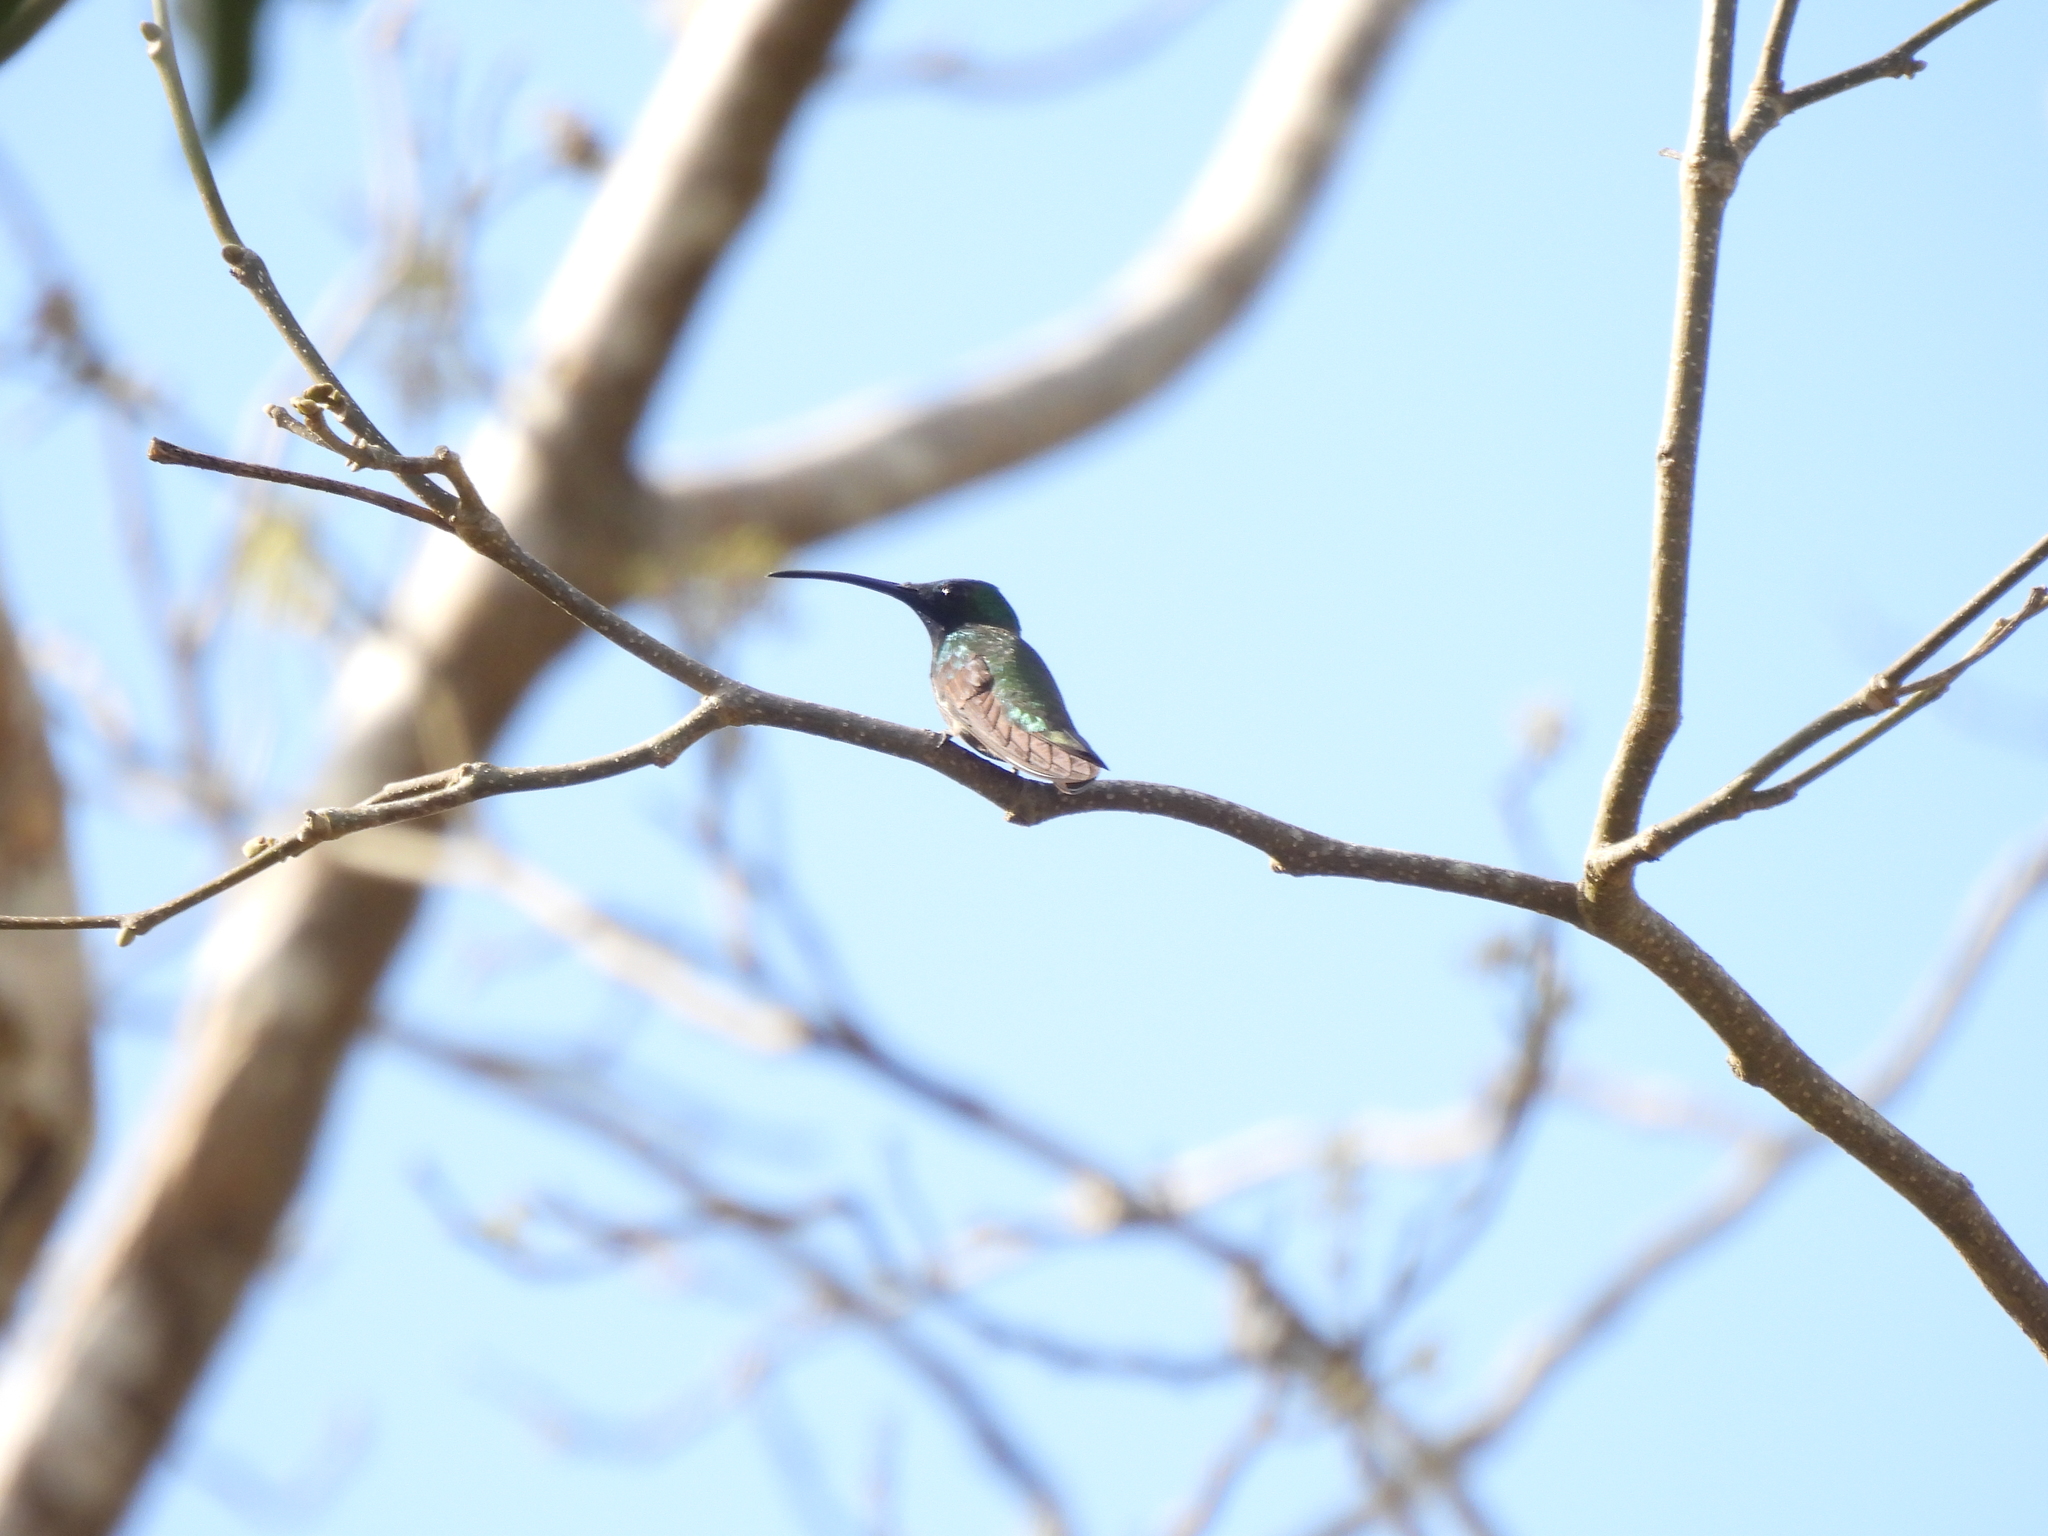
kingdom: Animalia
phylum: Chordata
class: Aves
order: Apodiformes
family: Trochilidae
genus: Anthracothorax
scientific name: Anthracothorax prevostii
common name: Green-breasted mango
